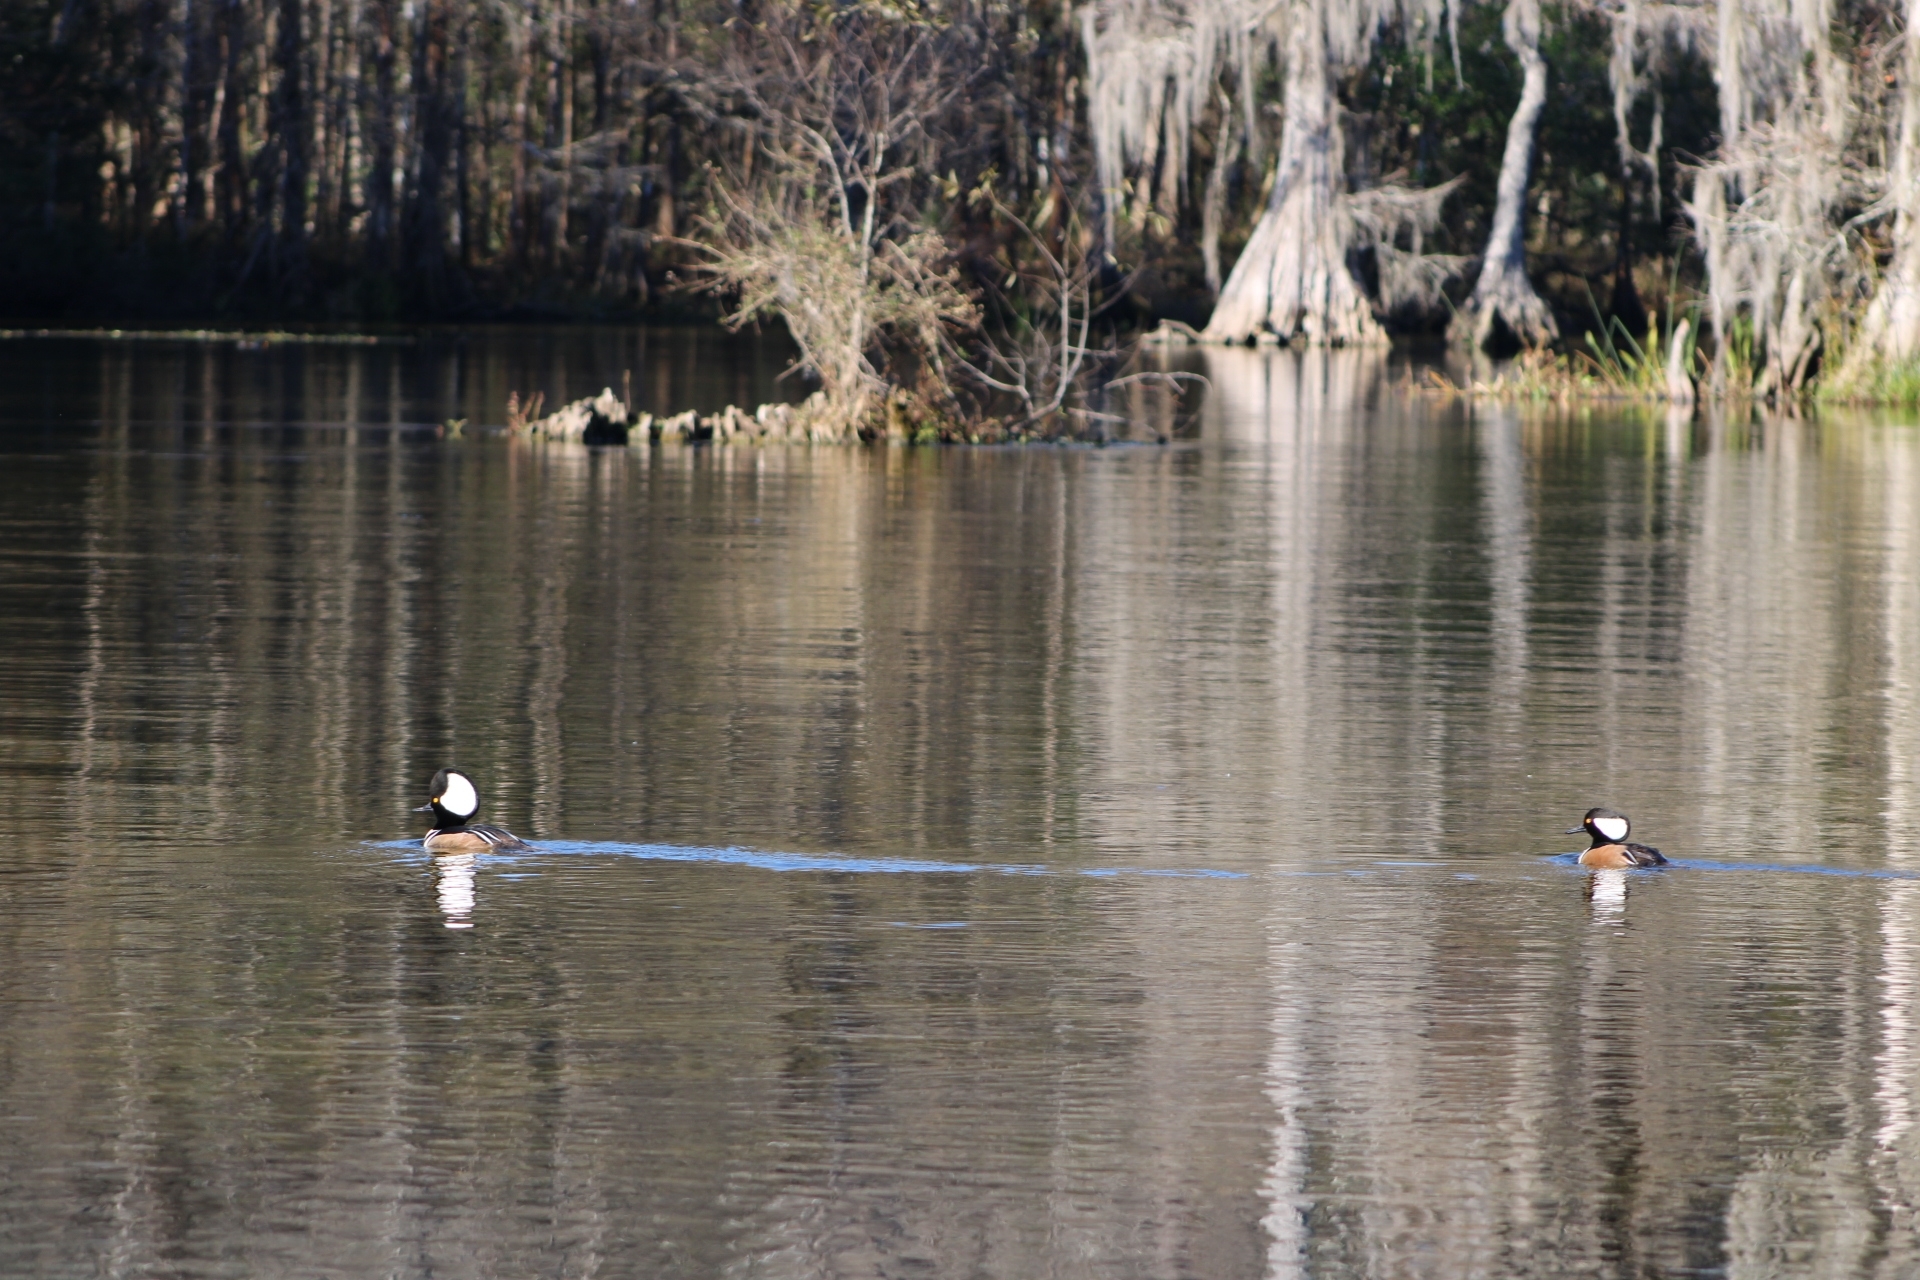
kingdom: Animalia
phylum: Chordata
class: Aves
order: Anseriformes
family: Anatidae
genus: Lophodytes
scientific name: Lophodytes cucullatus
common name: Hooded merganser
